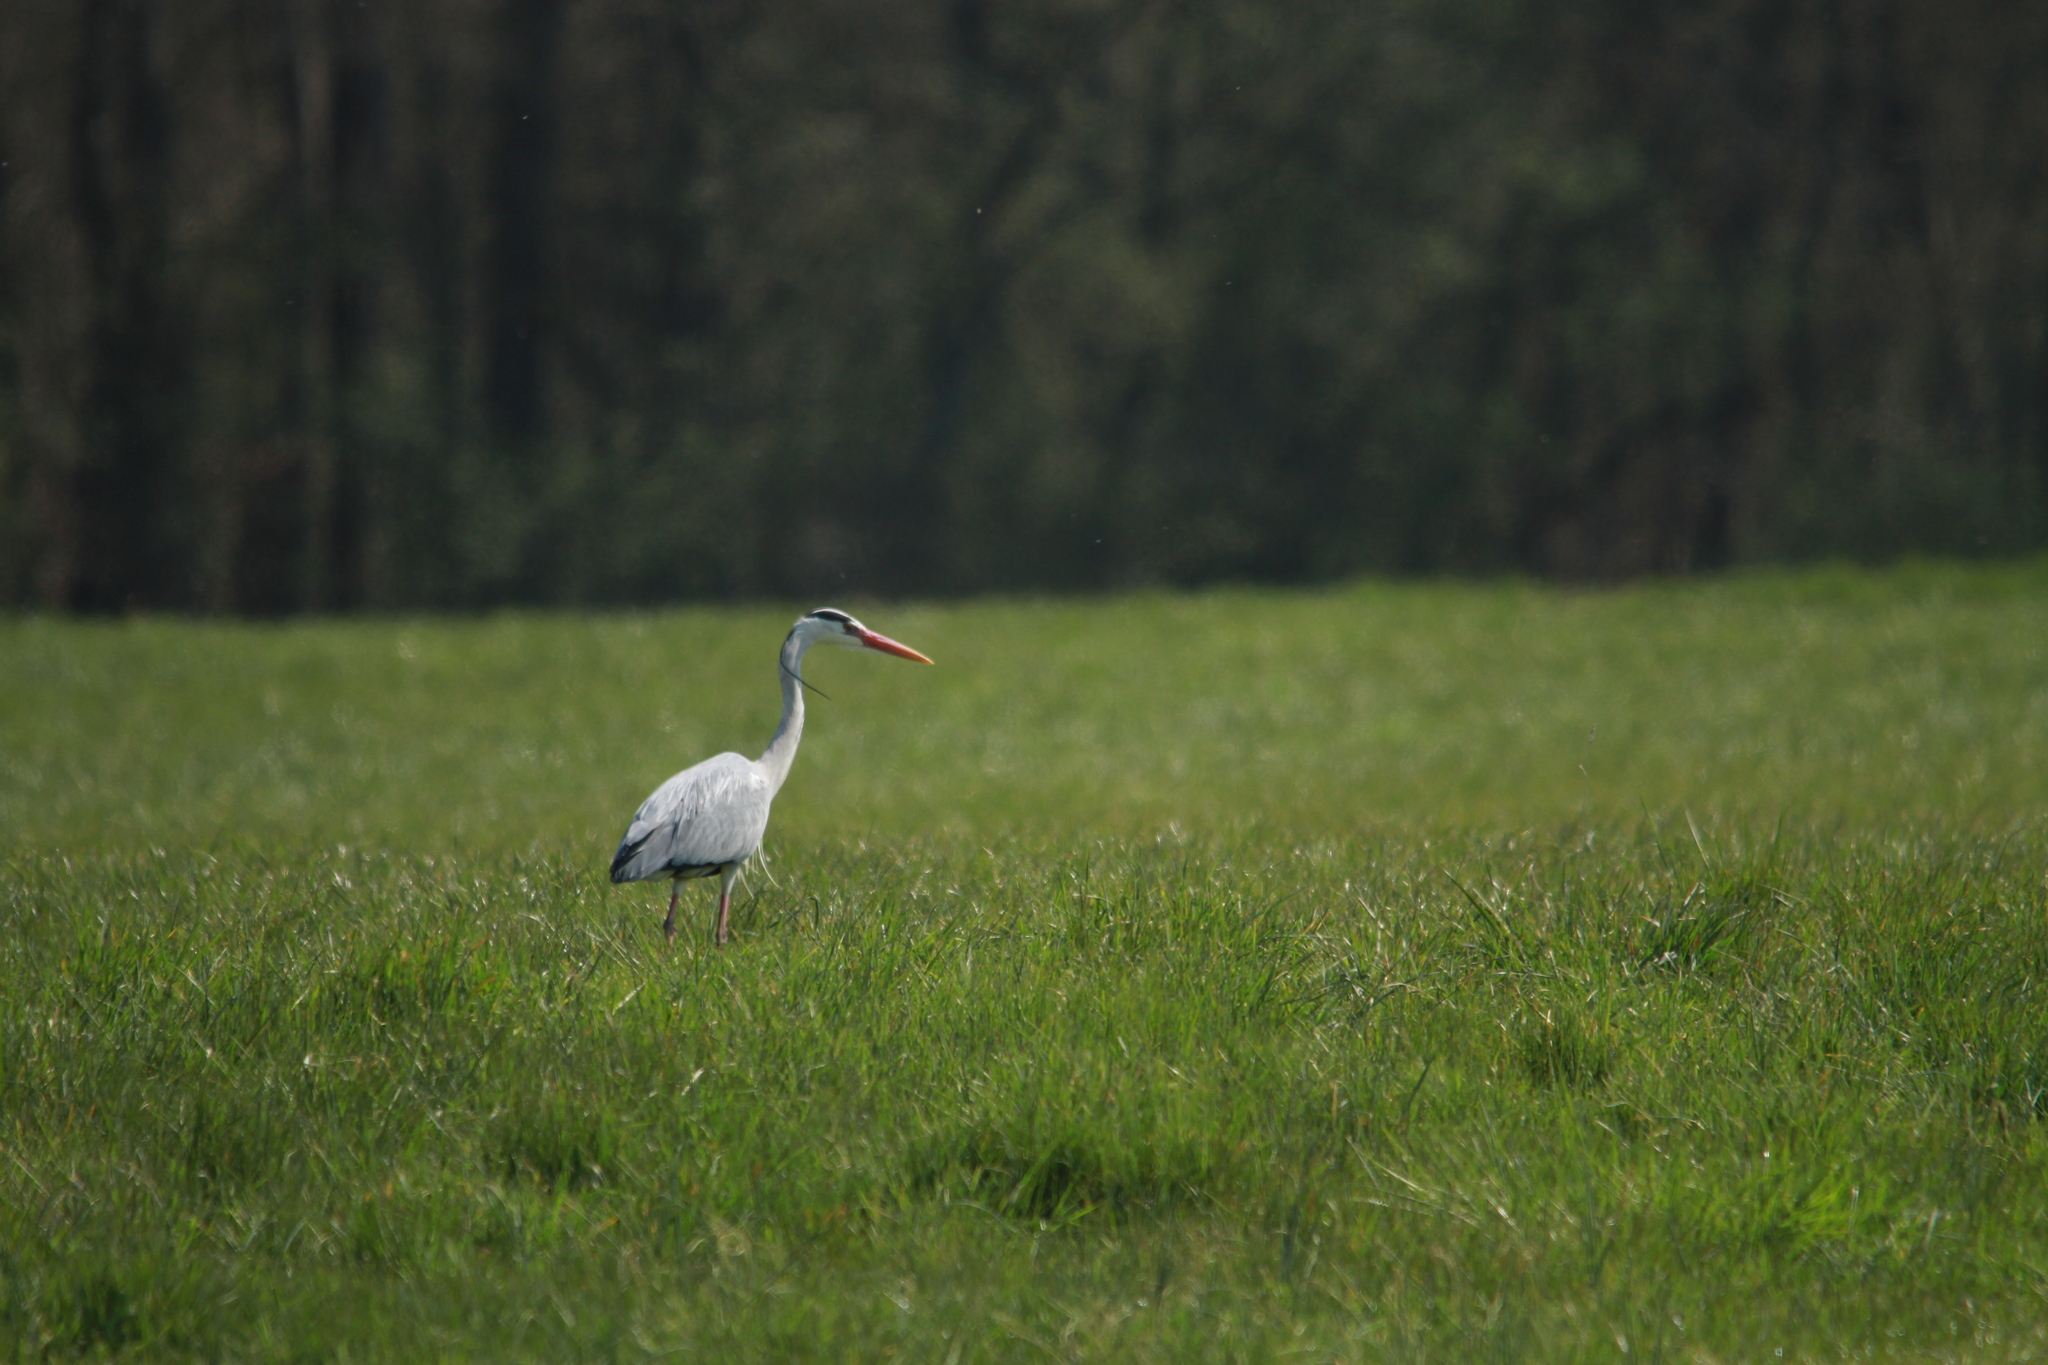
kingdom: Animalia
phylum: Chordata
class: Aves
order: Pelecaniformes
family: Ardeidae
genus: Ardea
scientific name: Ardea cinerea
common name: Grey heron
